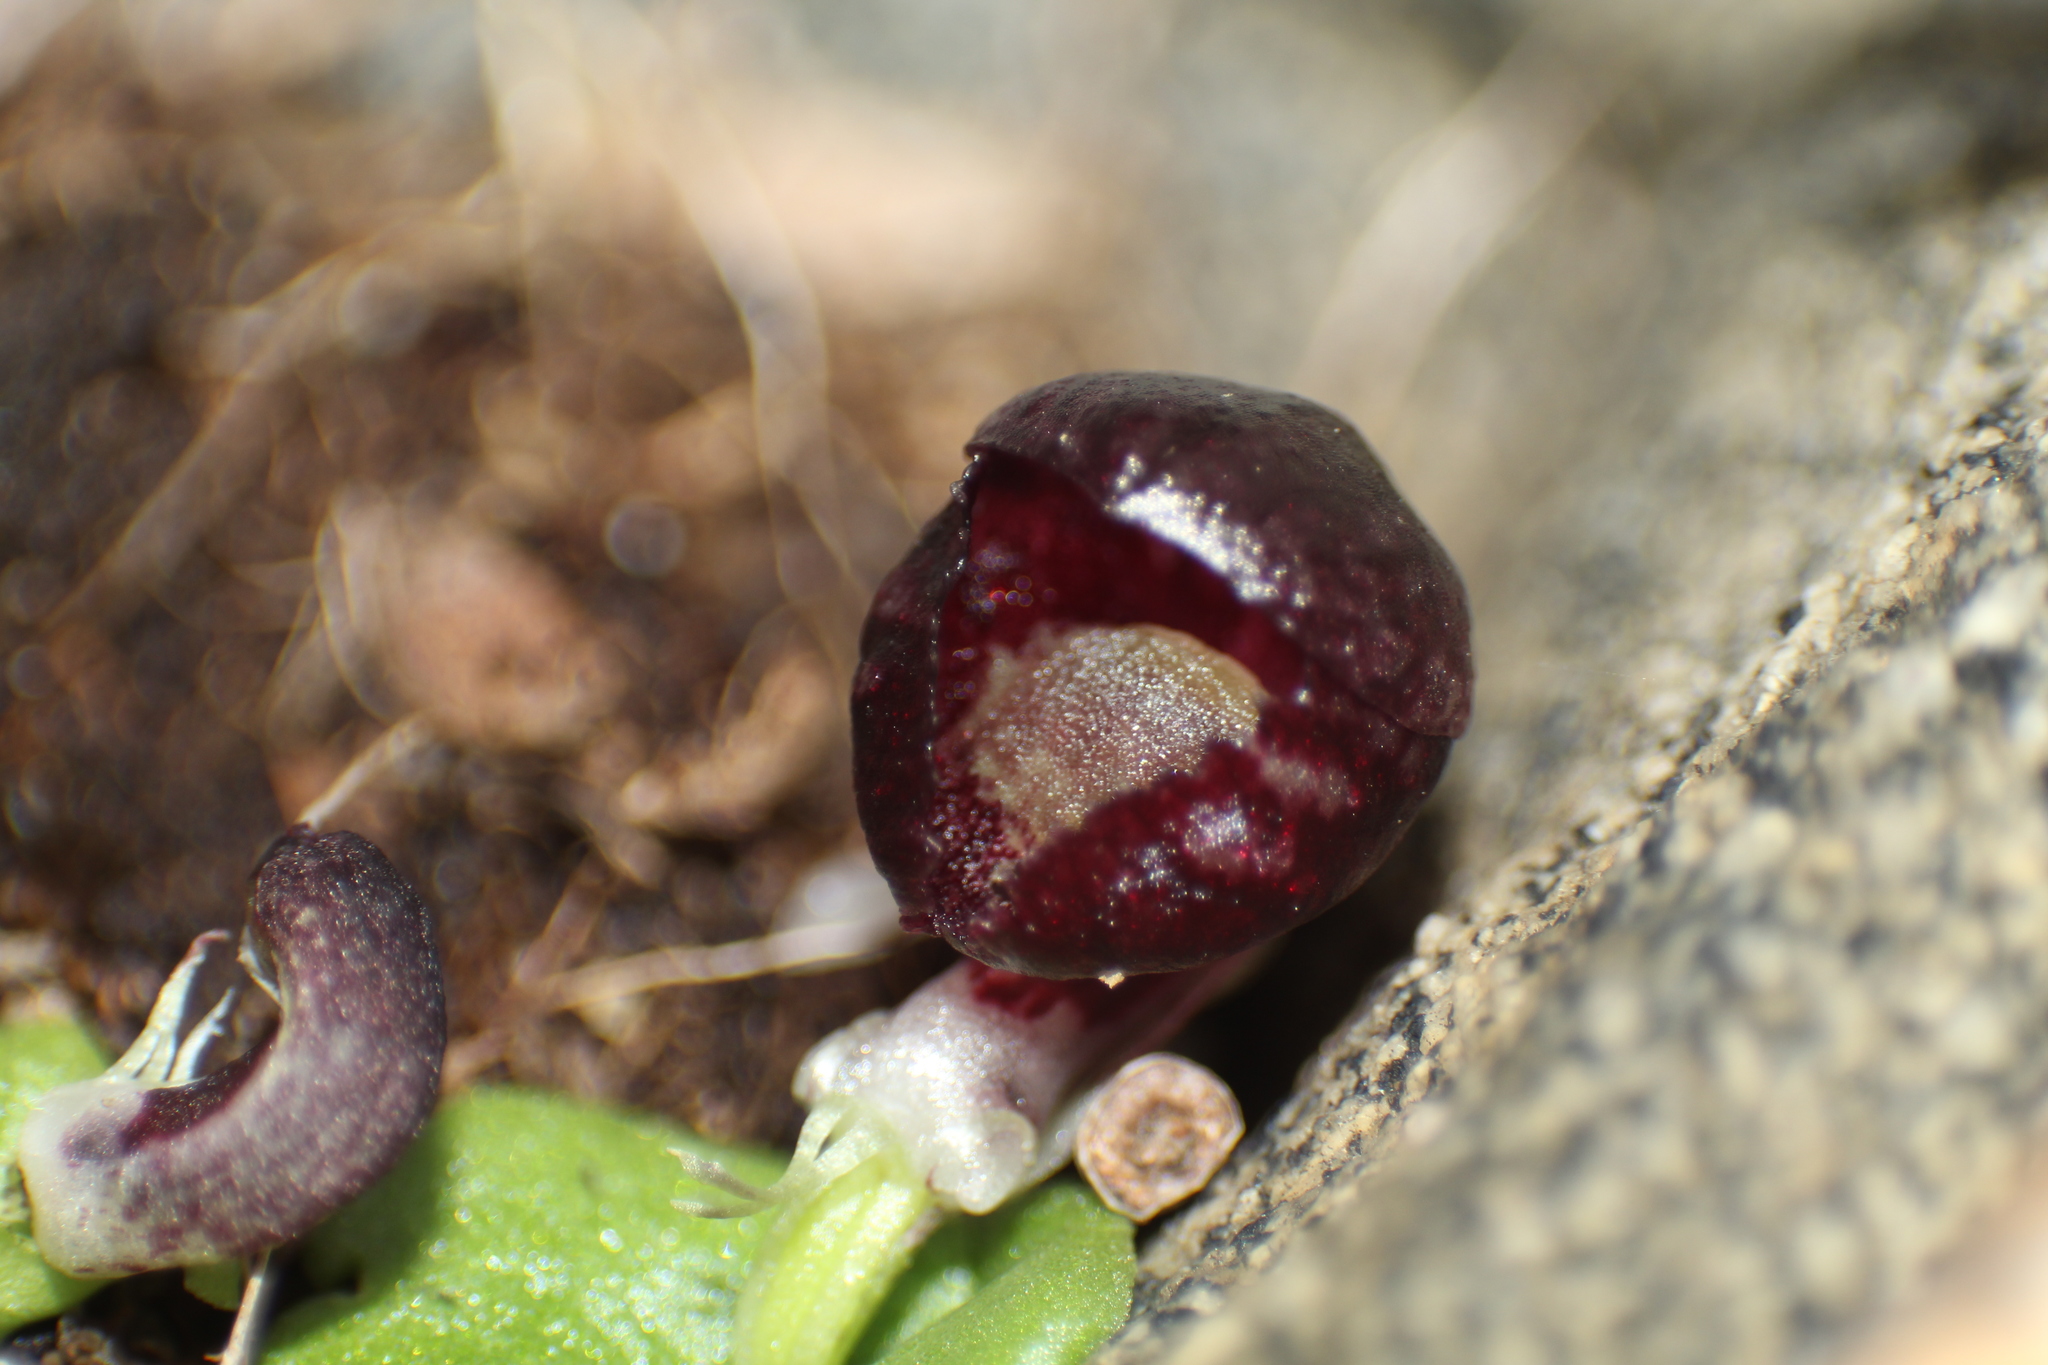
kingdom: Plantae
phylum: Tracheophyta
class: Liliopsida
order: Asparagales
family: Orchidaceae
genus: Corybas
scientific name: Corybas recurvus
